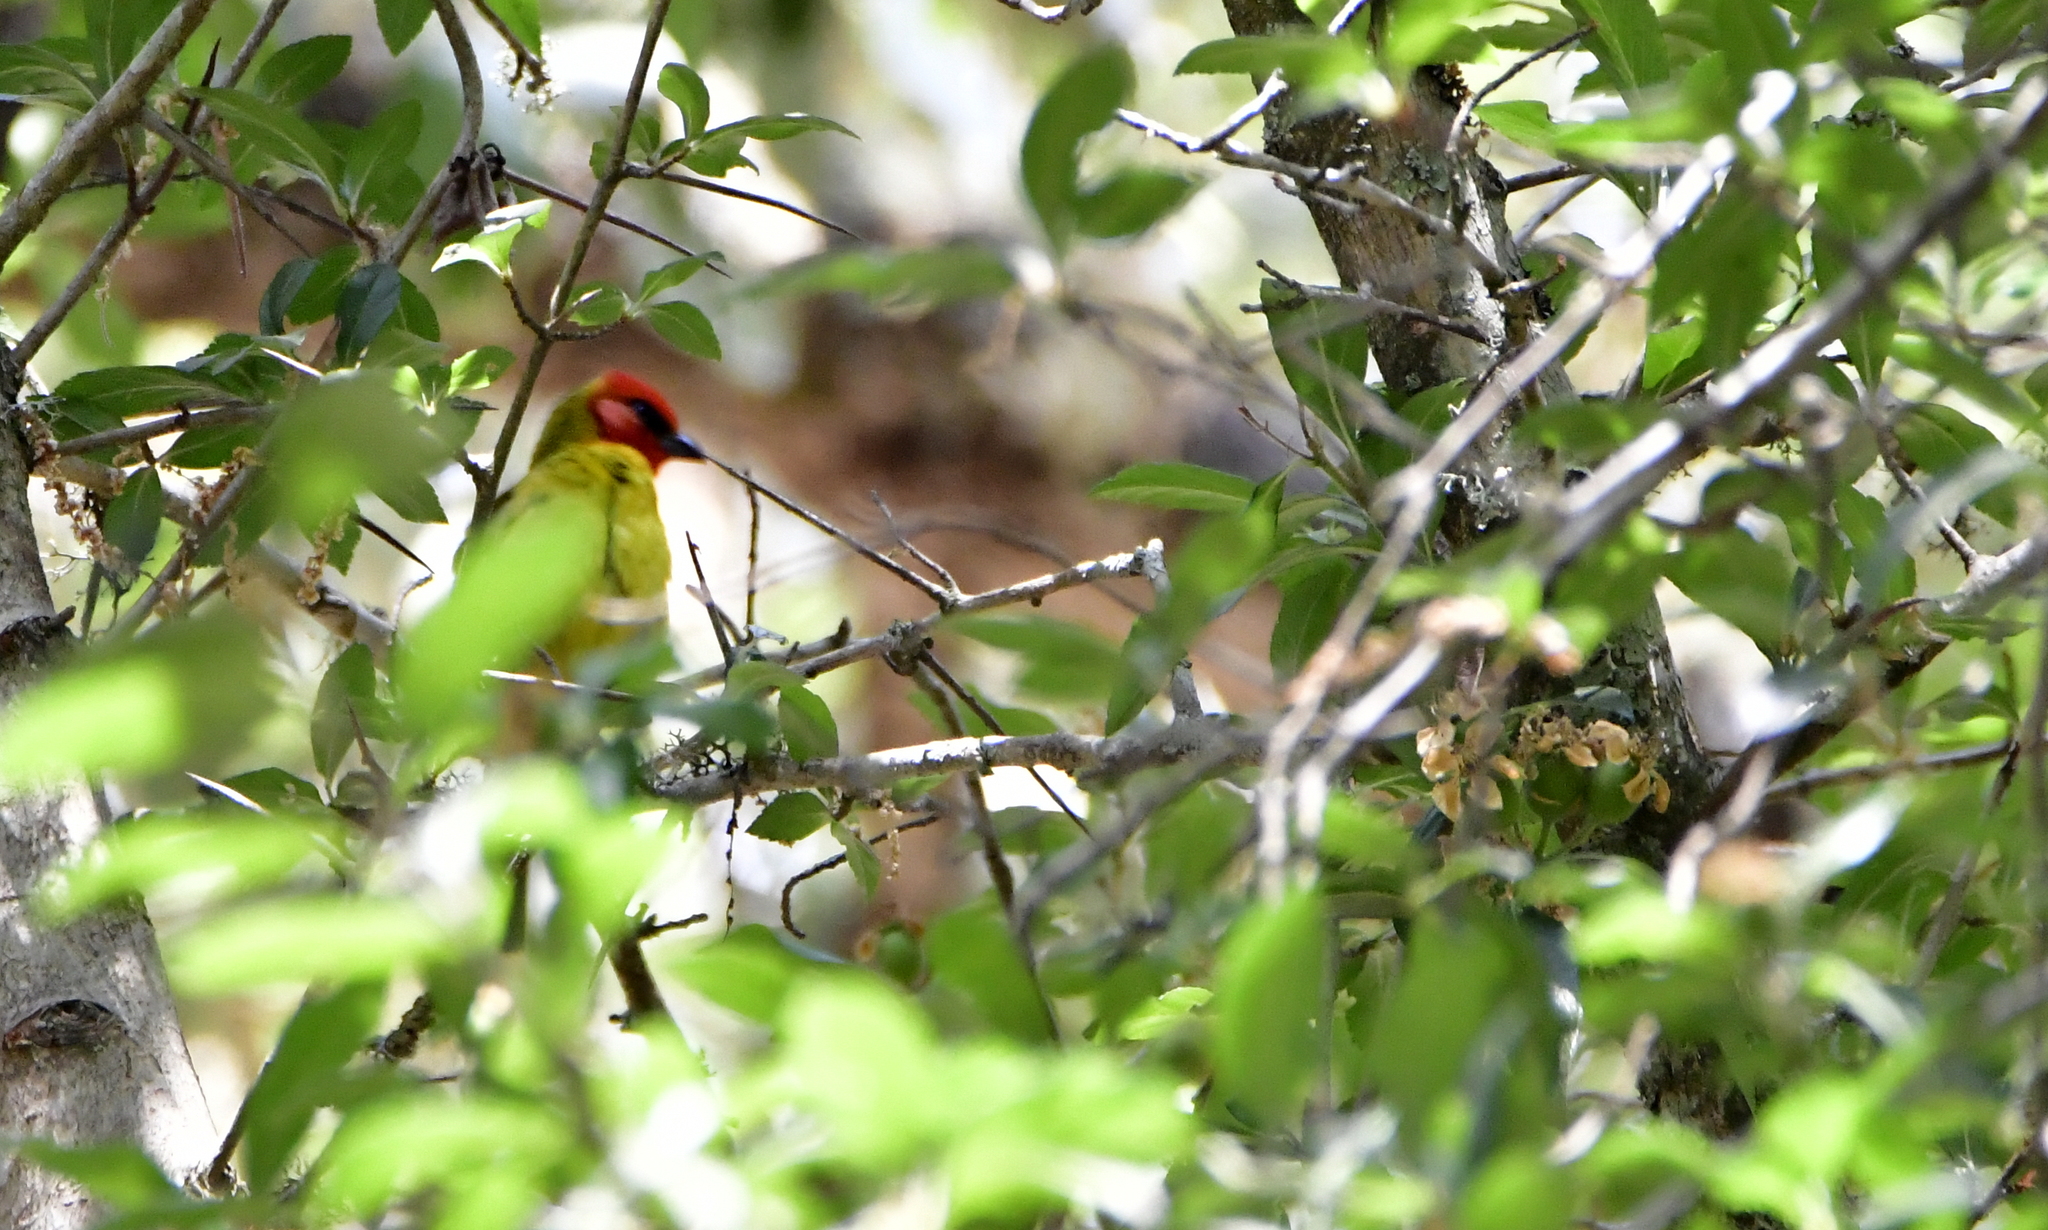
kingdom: Animalia
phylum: Chordata
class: Aves
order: Passeriformes
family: Cardinalidae
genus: Piranga
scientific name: Piranga erythrocephala
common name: Red-headed tanager
